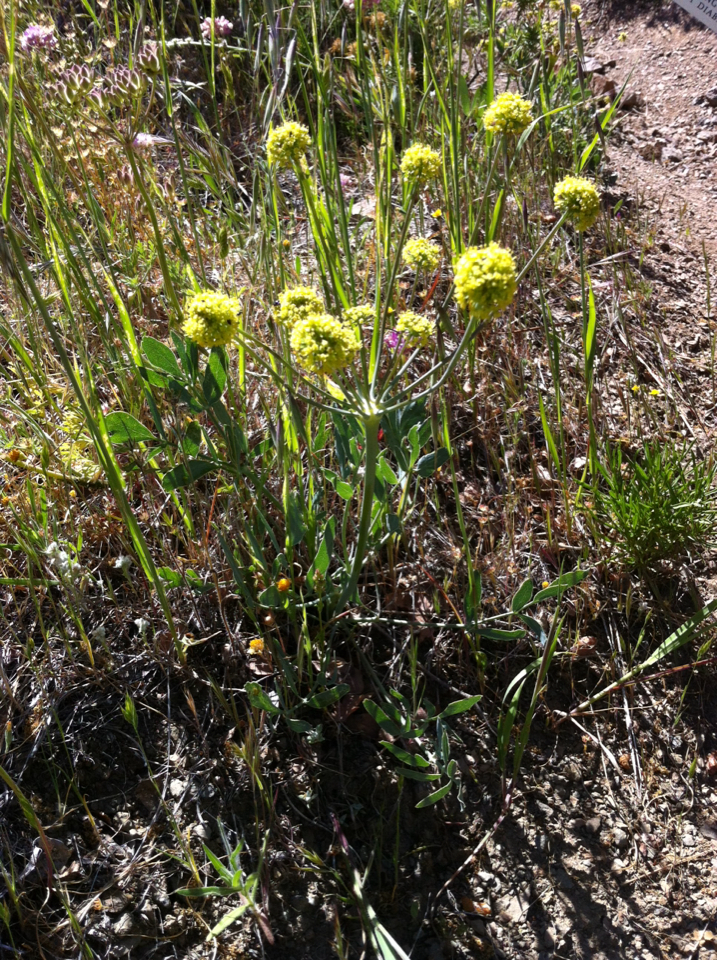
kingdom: Plantae
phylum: Tracheophyta
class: Magnoliopsida
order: Apiales
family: Apiaceae
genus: Lomatium
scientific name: Lomatium nudicaule
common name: Pestle lomatium
